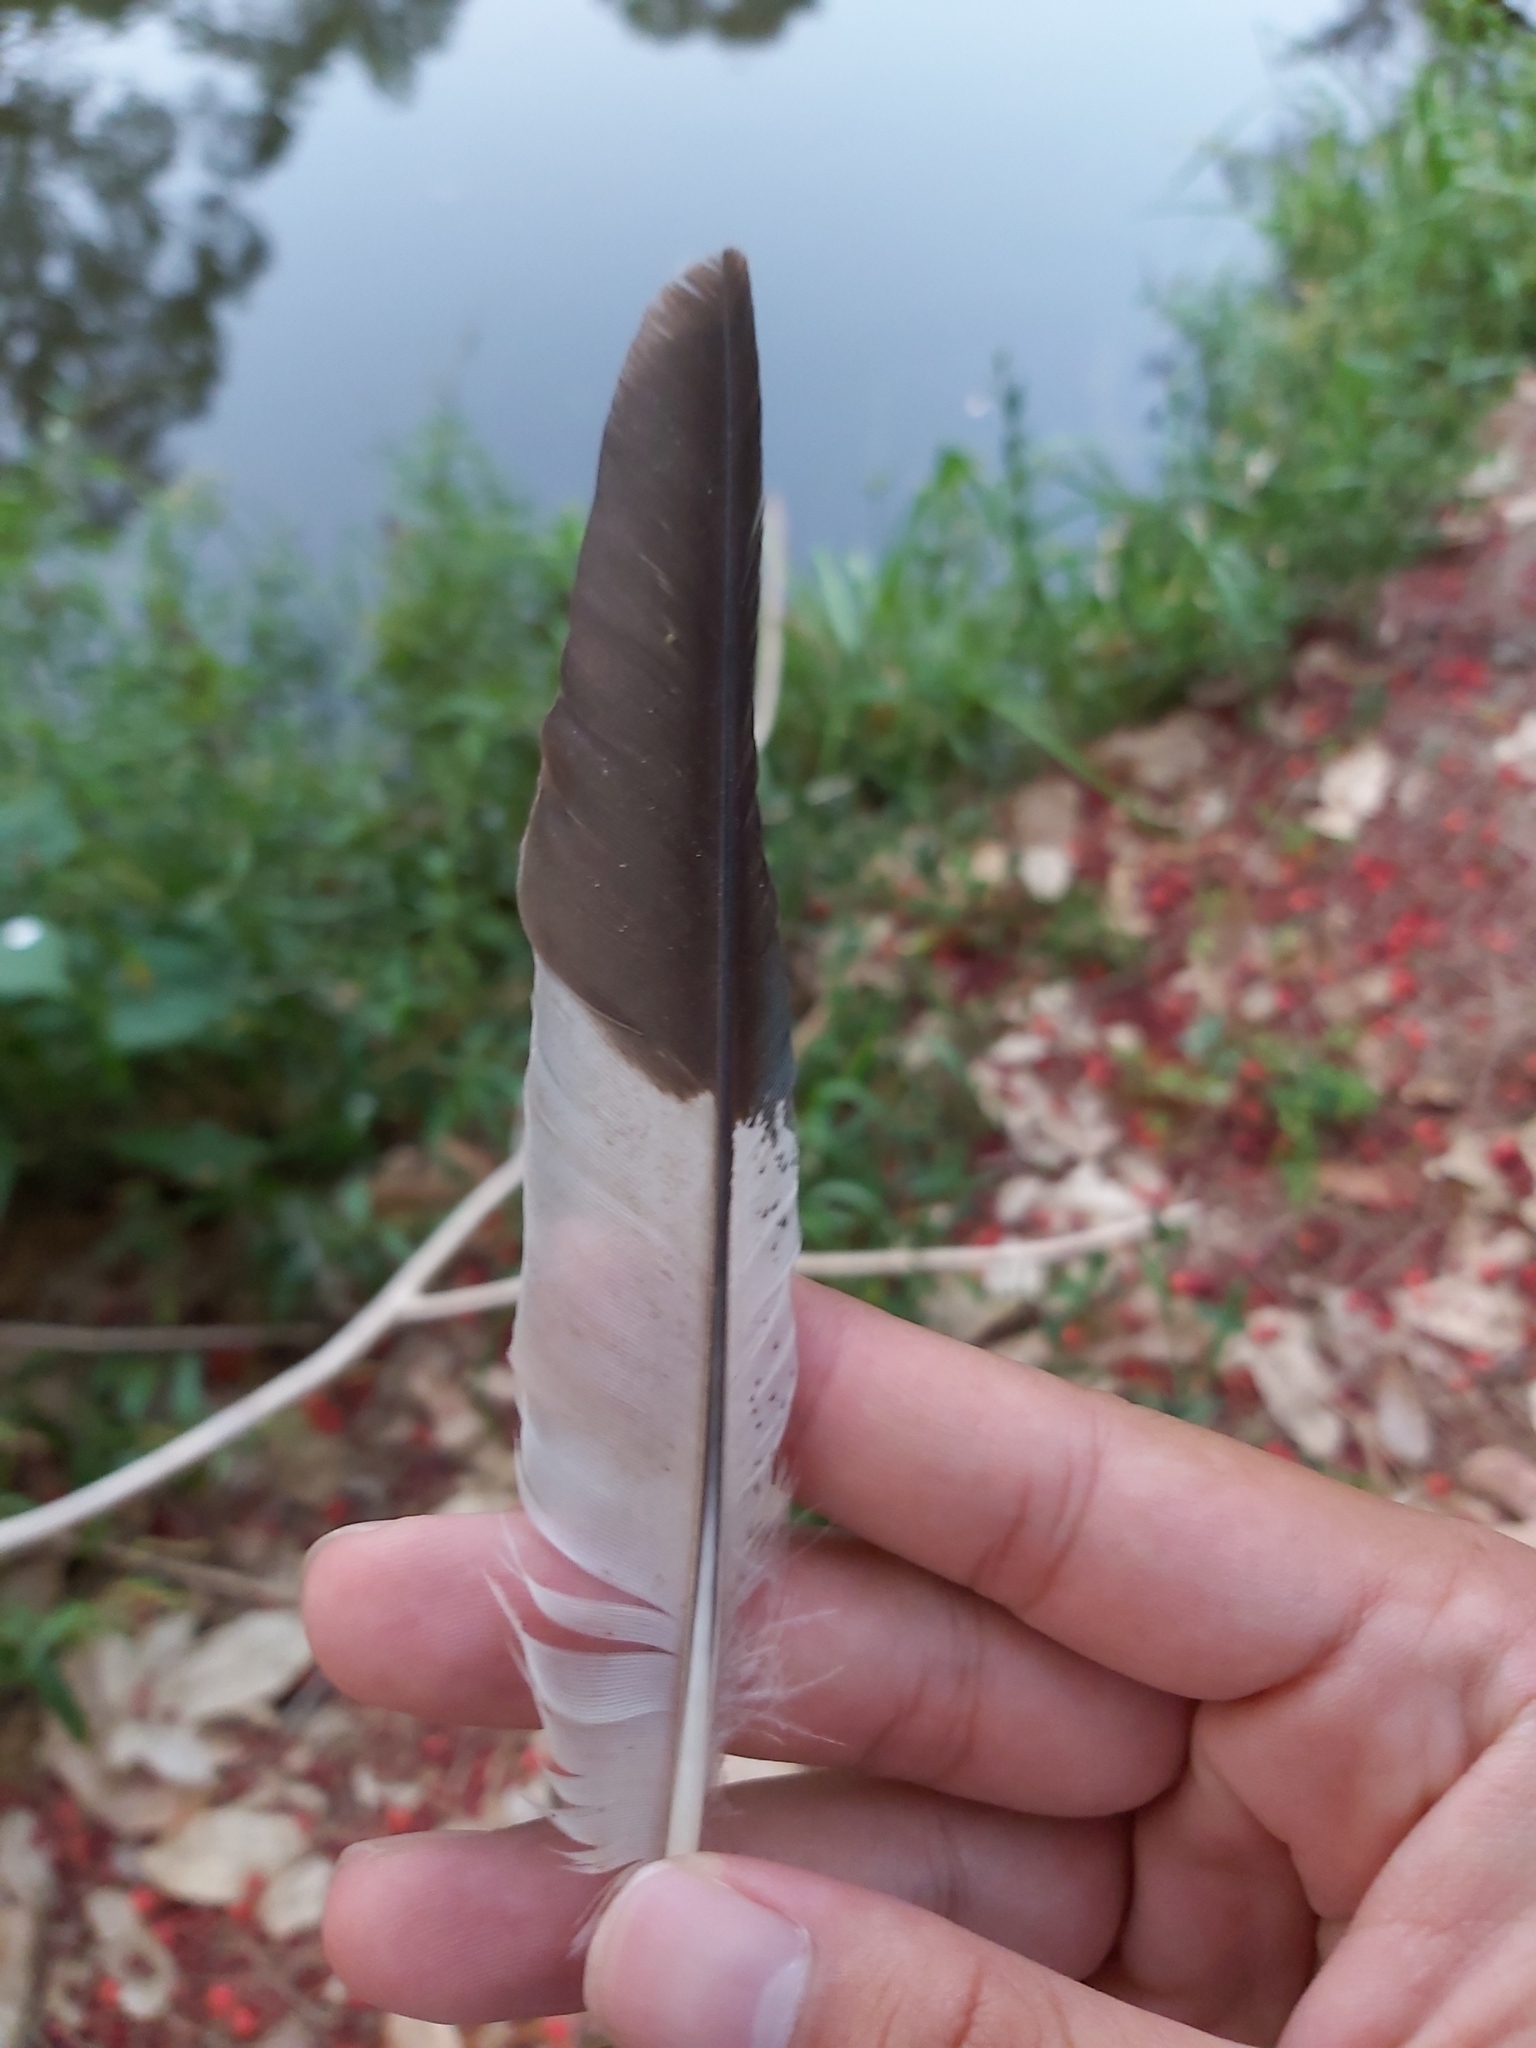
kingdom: Animalia
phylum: Chordata
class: Aves
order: Coraciiformes
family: Alcedinidae
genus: Dacelo
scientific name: Dacelo novaeguineae
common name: Laughing kookaburra
